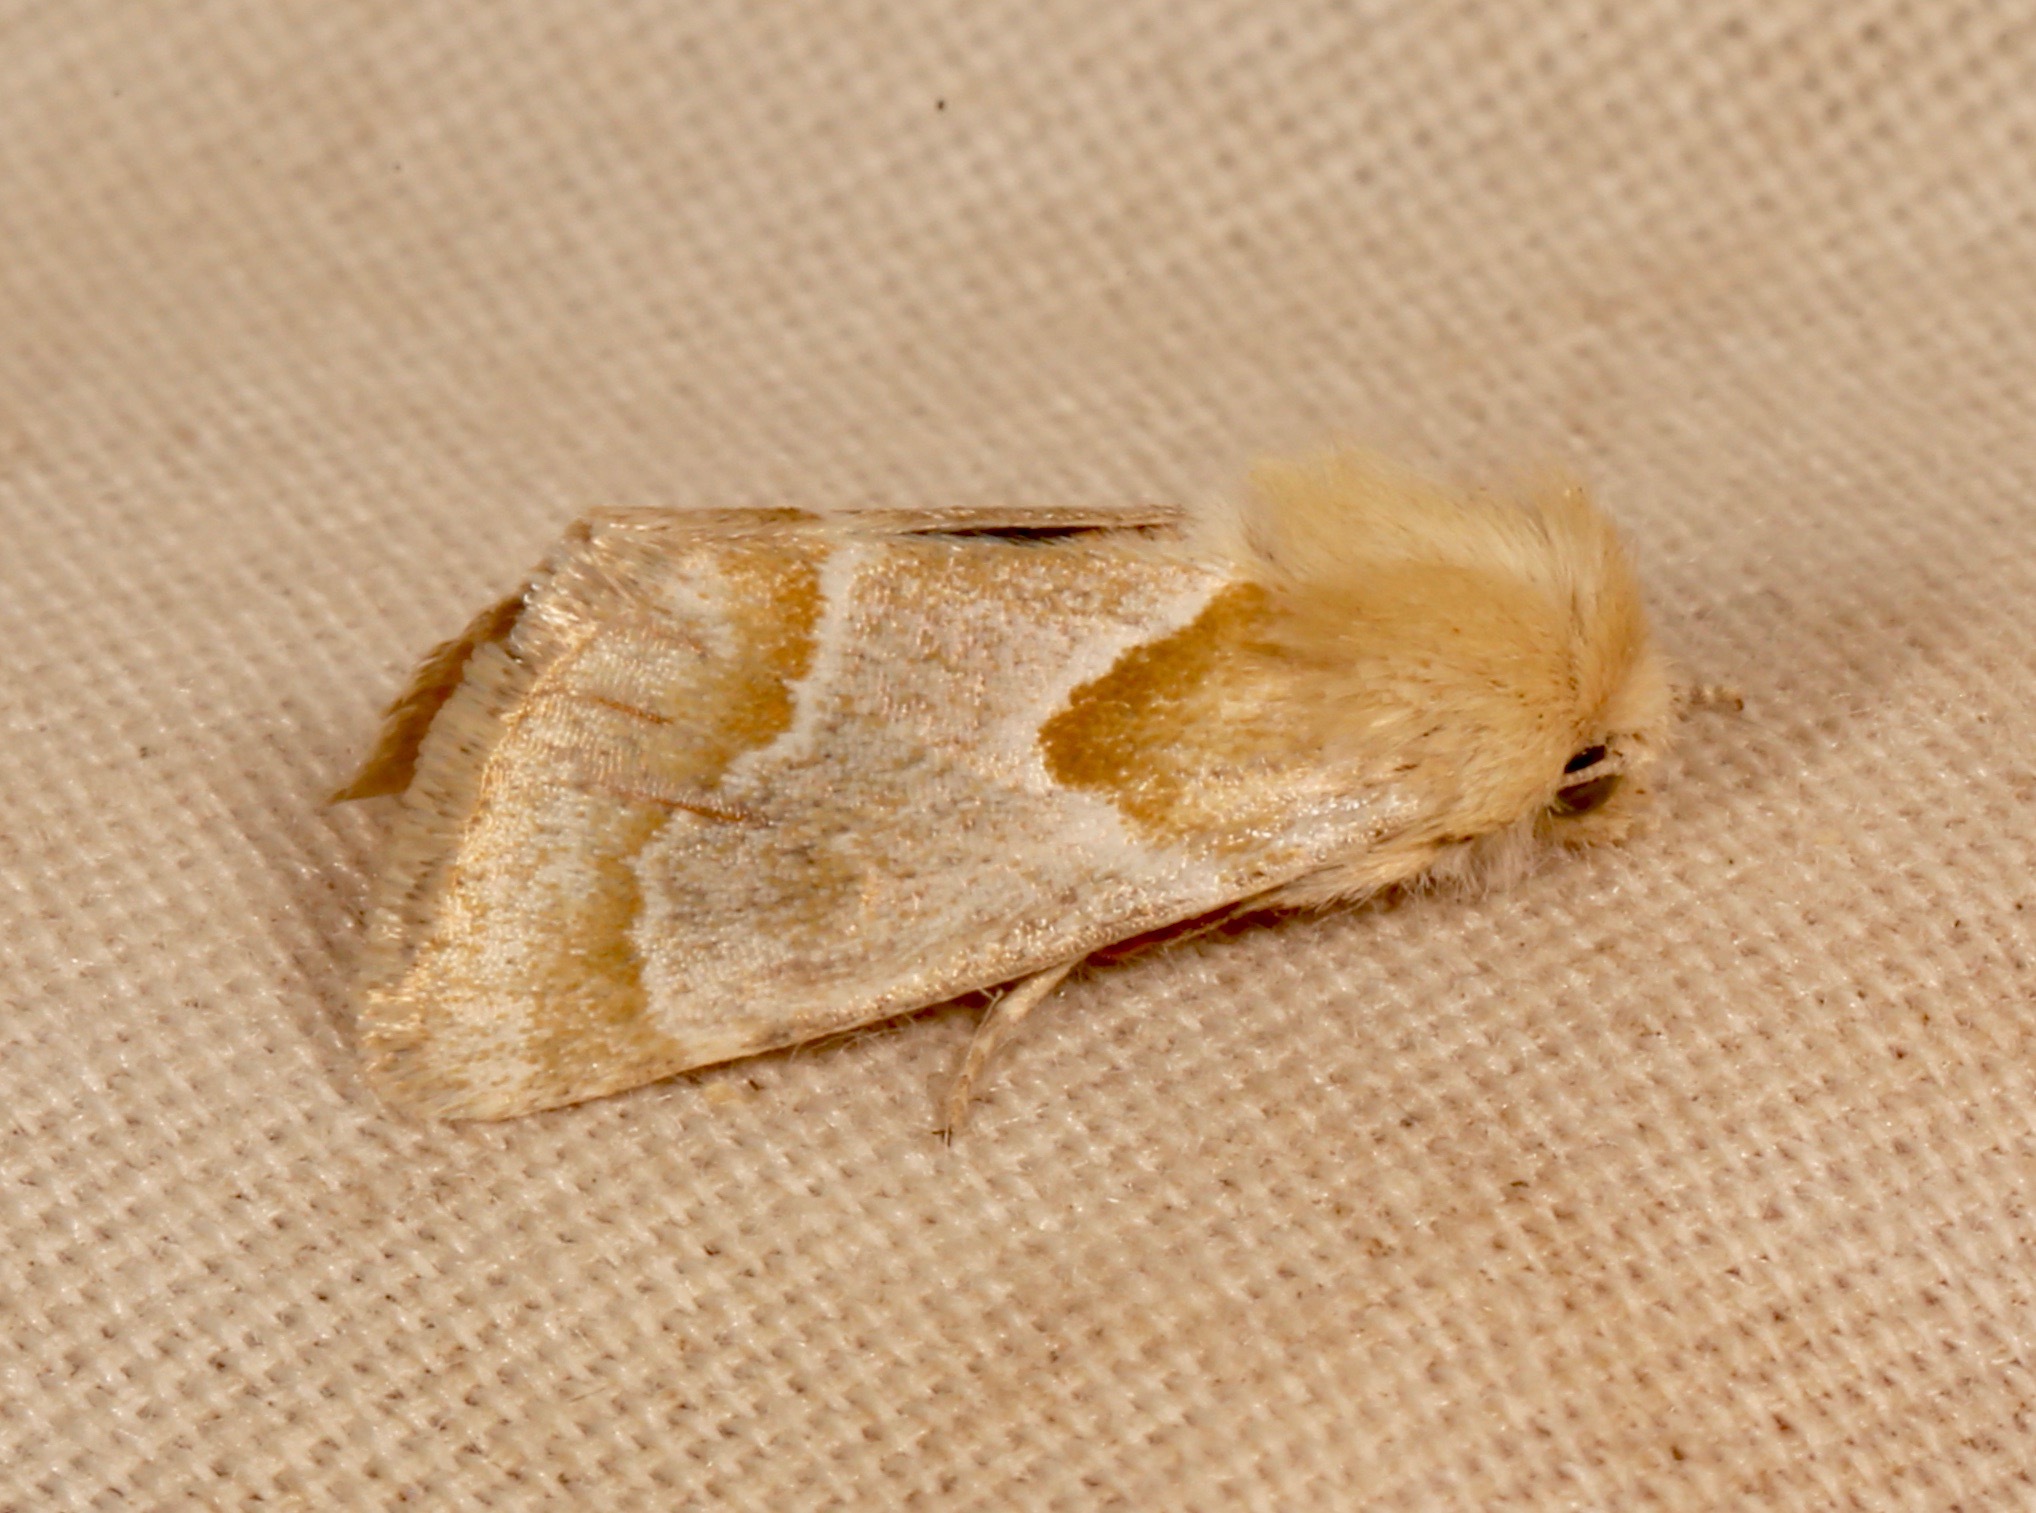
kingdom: Animalia
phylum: Arthropoda
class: Insecta
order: Lepidoptera
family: Noctuidae
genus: Schinia
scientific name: Schinia ligeae
